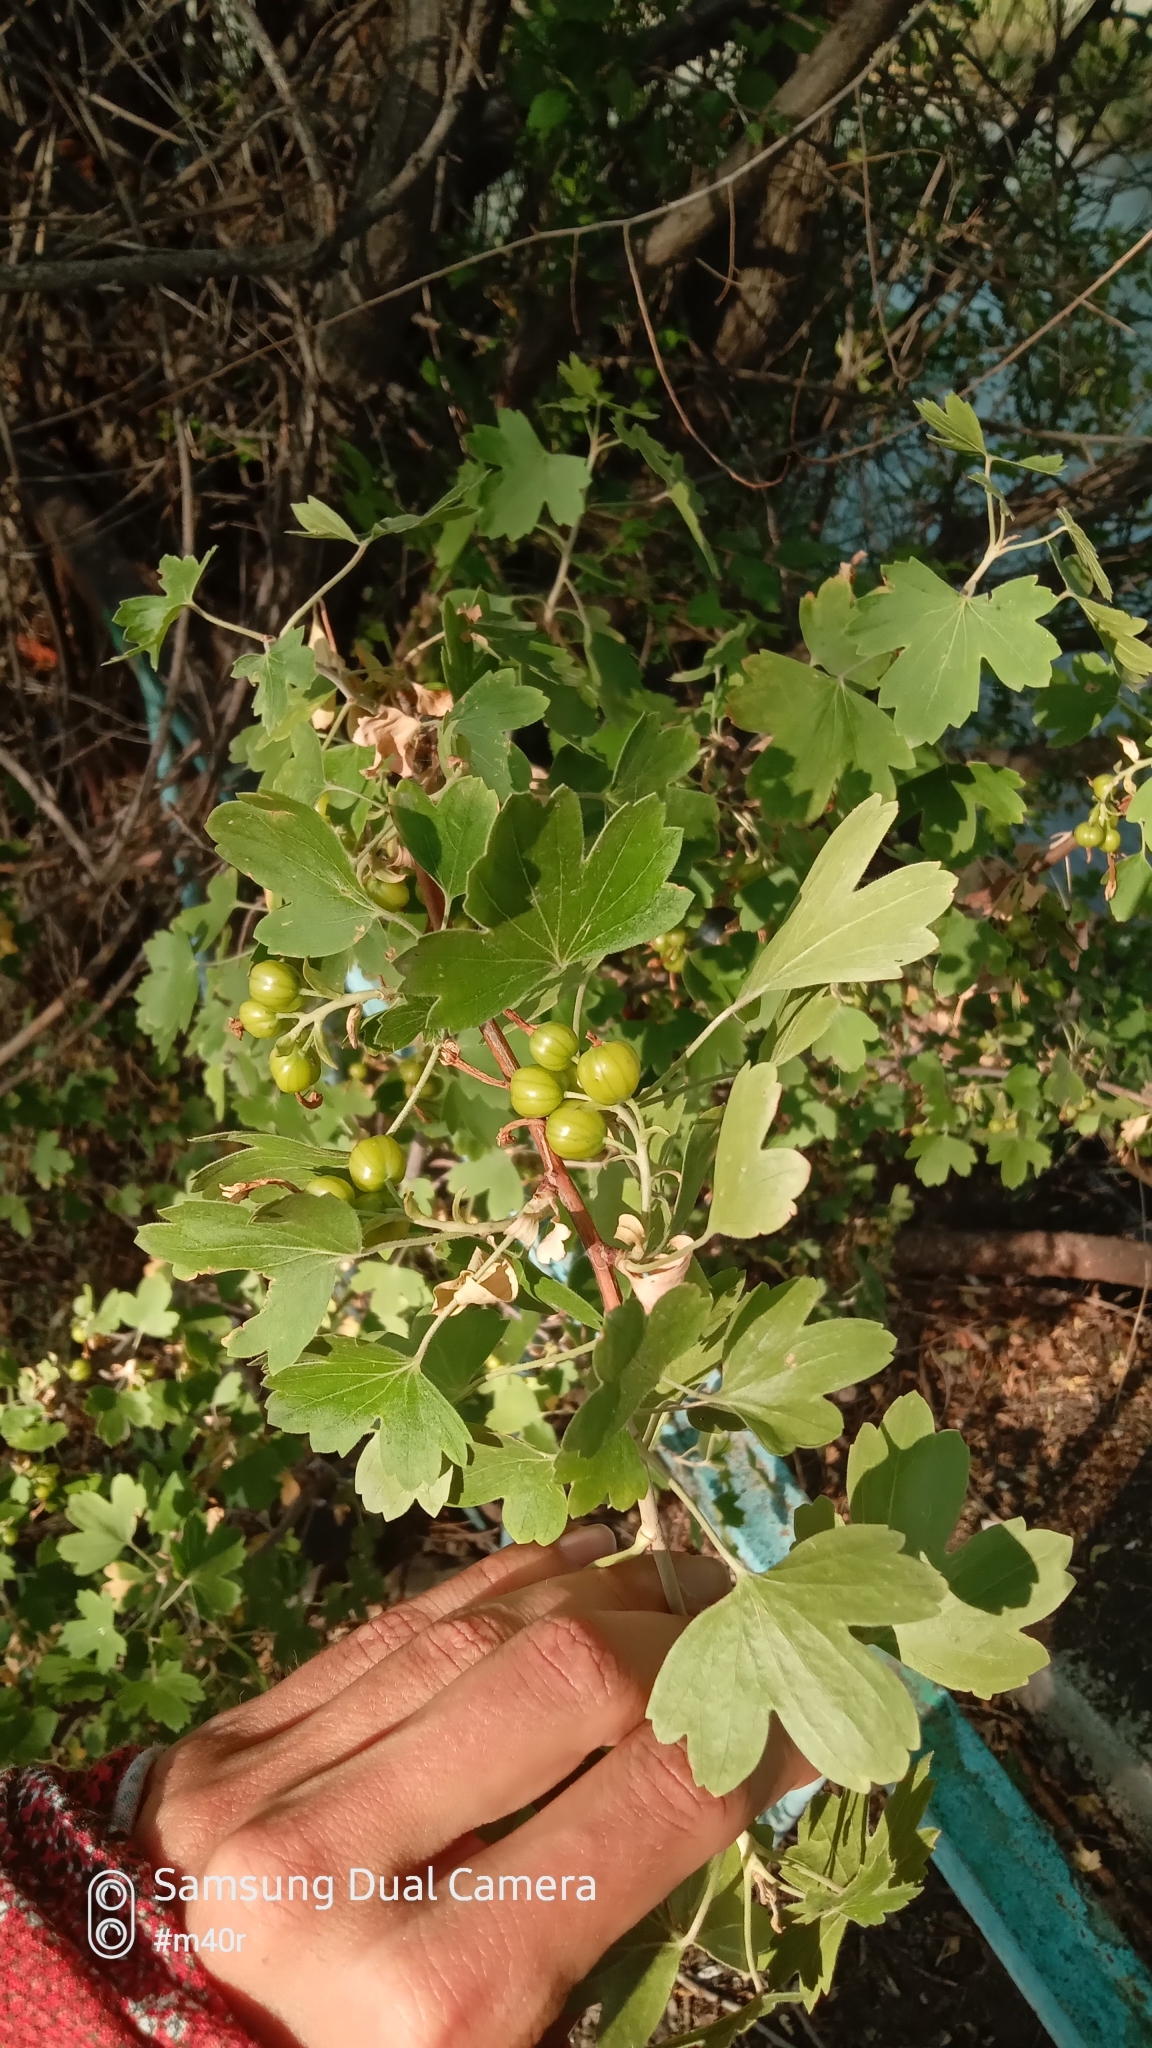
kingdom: Plantae
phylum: Tracheophyta
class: Magnoliopsida
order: Saxifragales
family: Grossulariaceae
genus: Ribes
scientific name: Ribes aureum
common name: Golden currant
